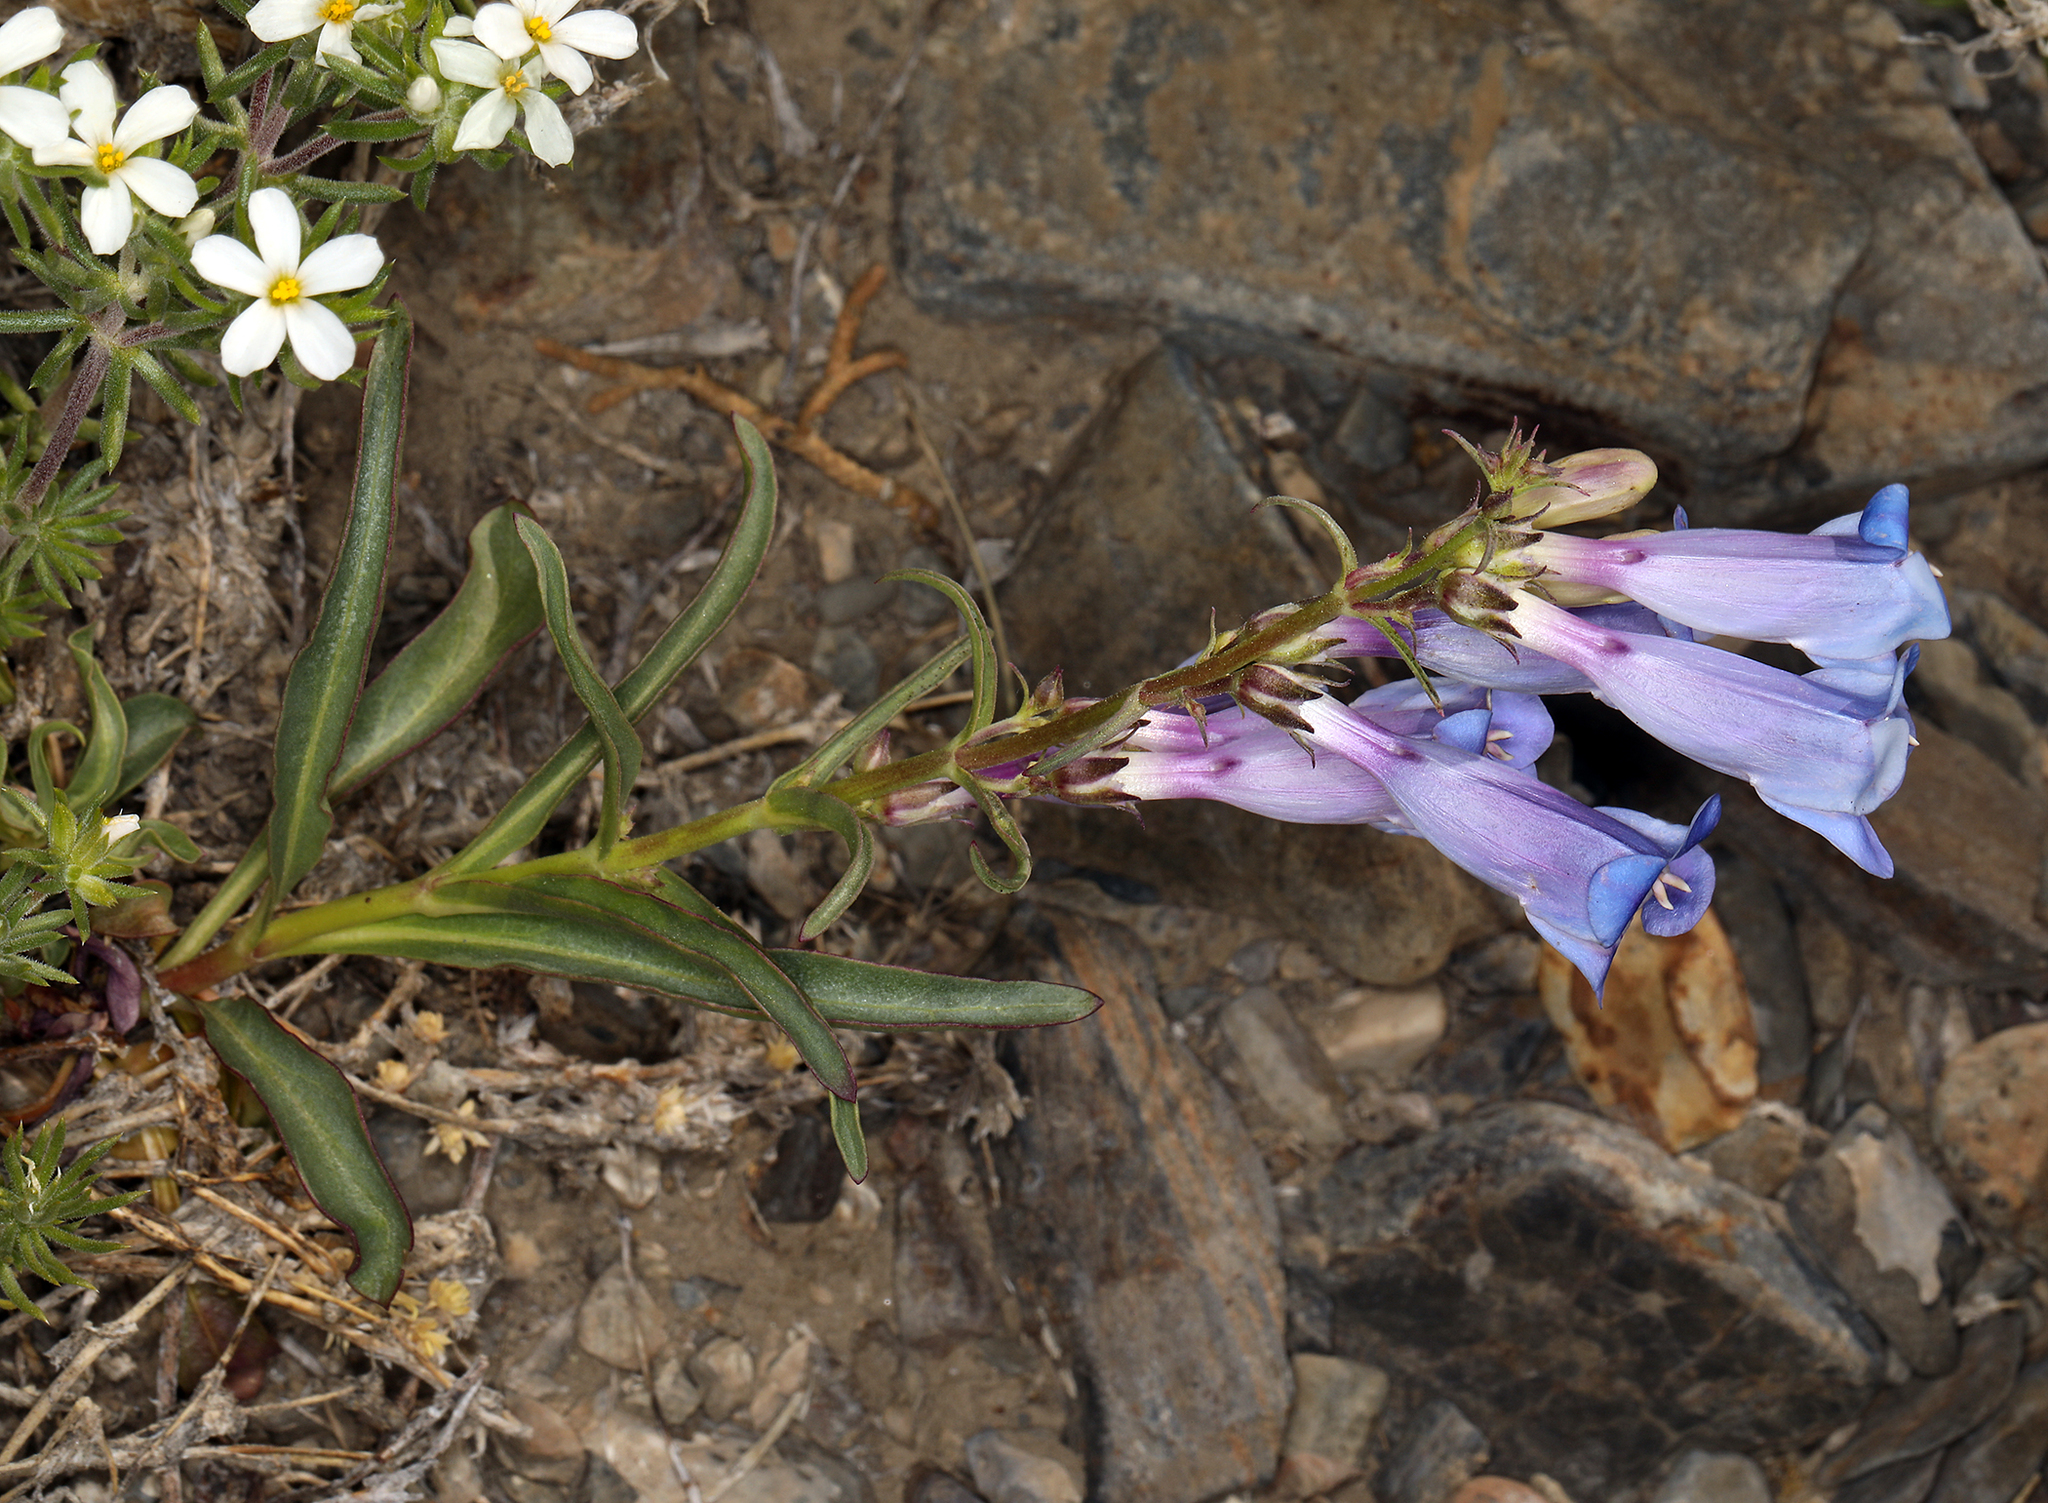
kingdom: Plantae
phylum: Tracheophyta
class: Magnoliopsida
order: Lamiales
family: Plantaginaceae
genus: Penstemon
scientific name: Penstemon speciosus
